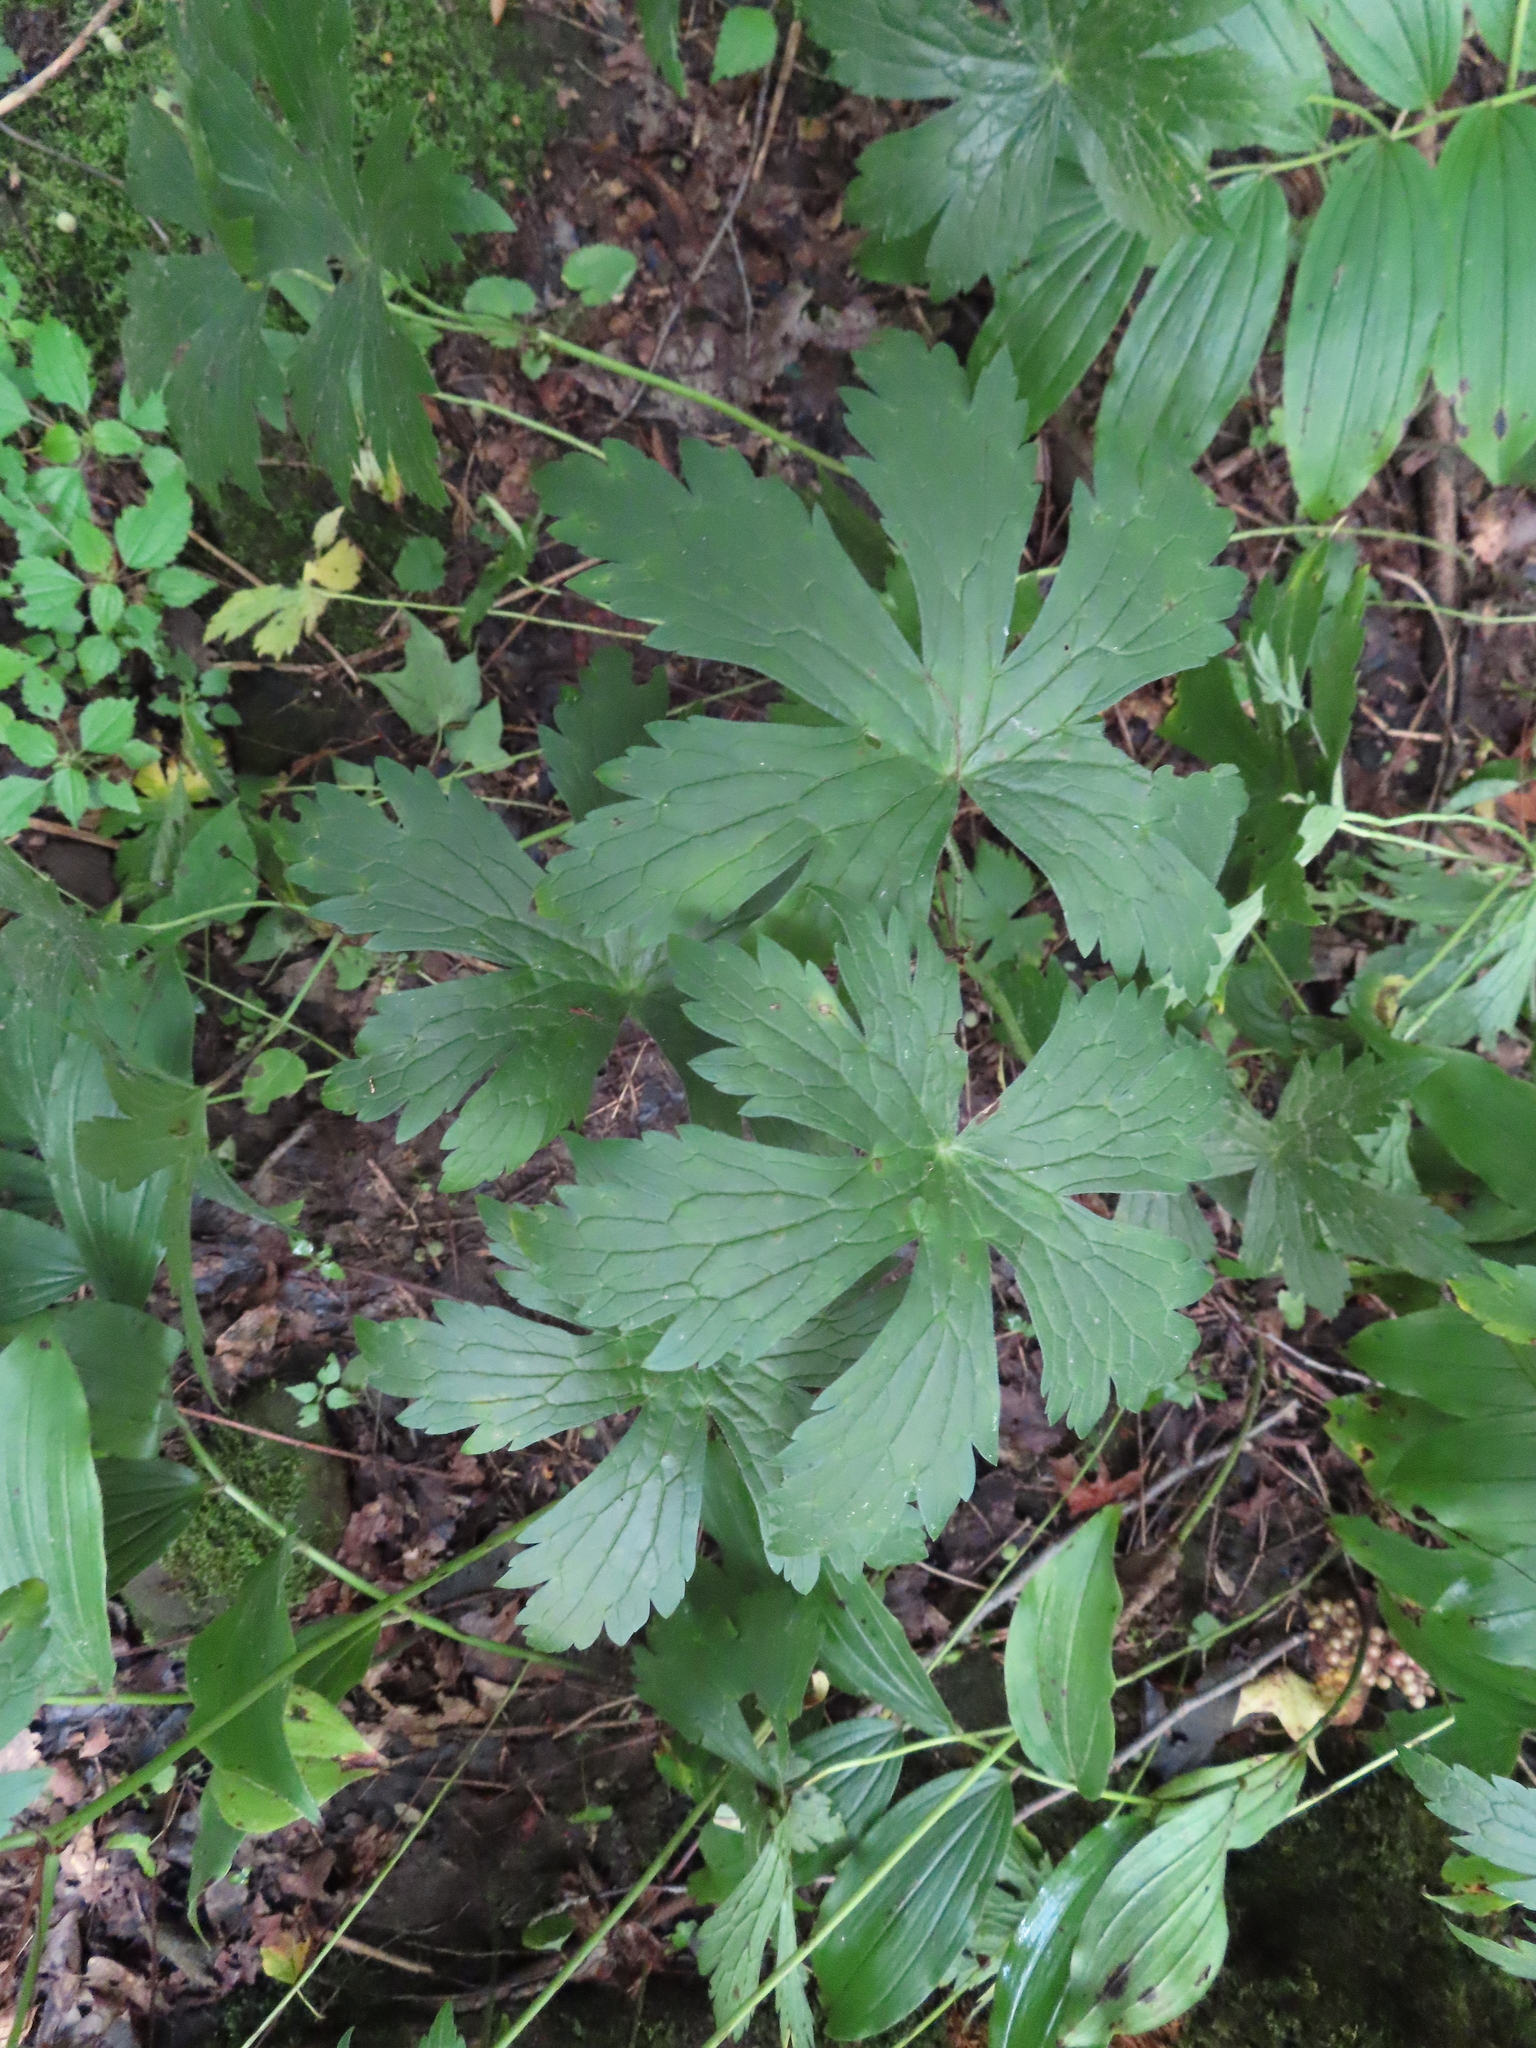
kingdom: Plantae
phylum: Tracheophyta
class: Magnoliopsida
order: Geraniales
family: Geraniaceae
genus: Geranium
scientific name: Geranium maculatum
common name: Spotted geranium
